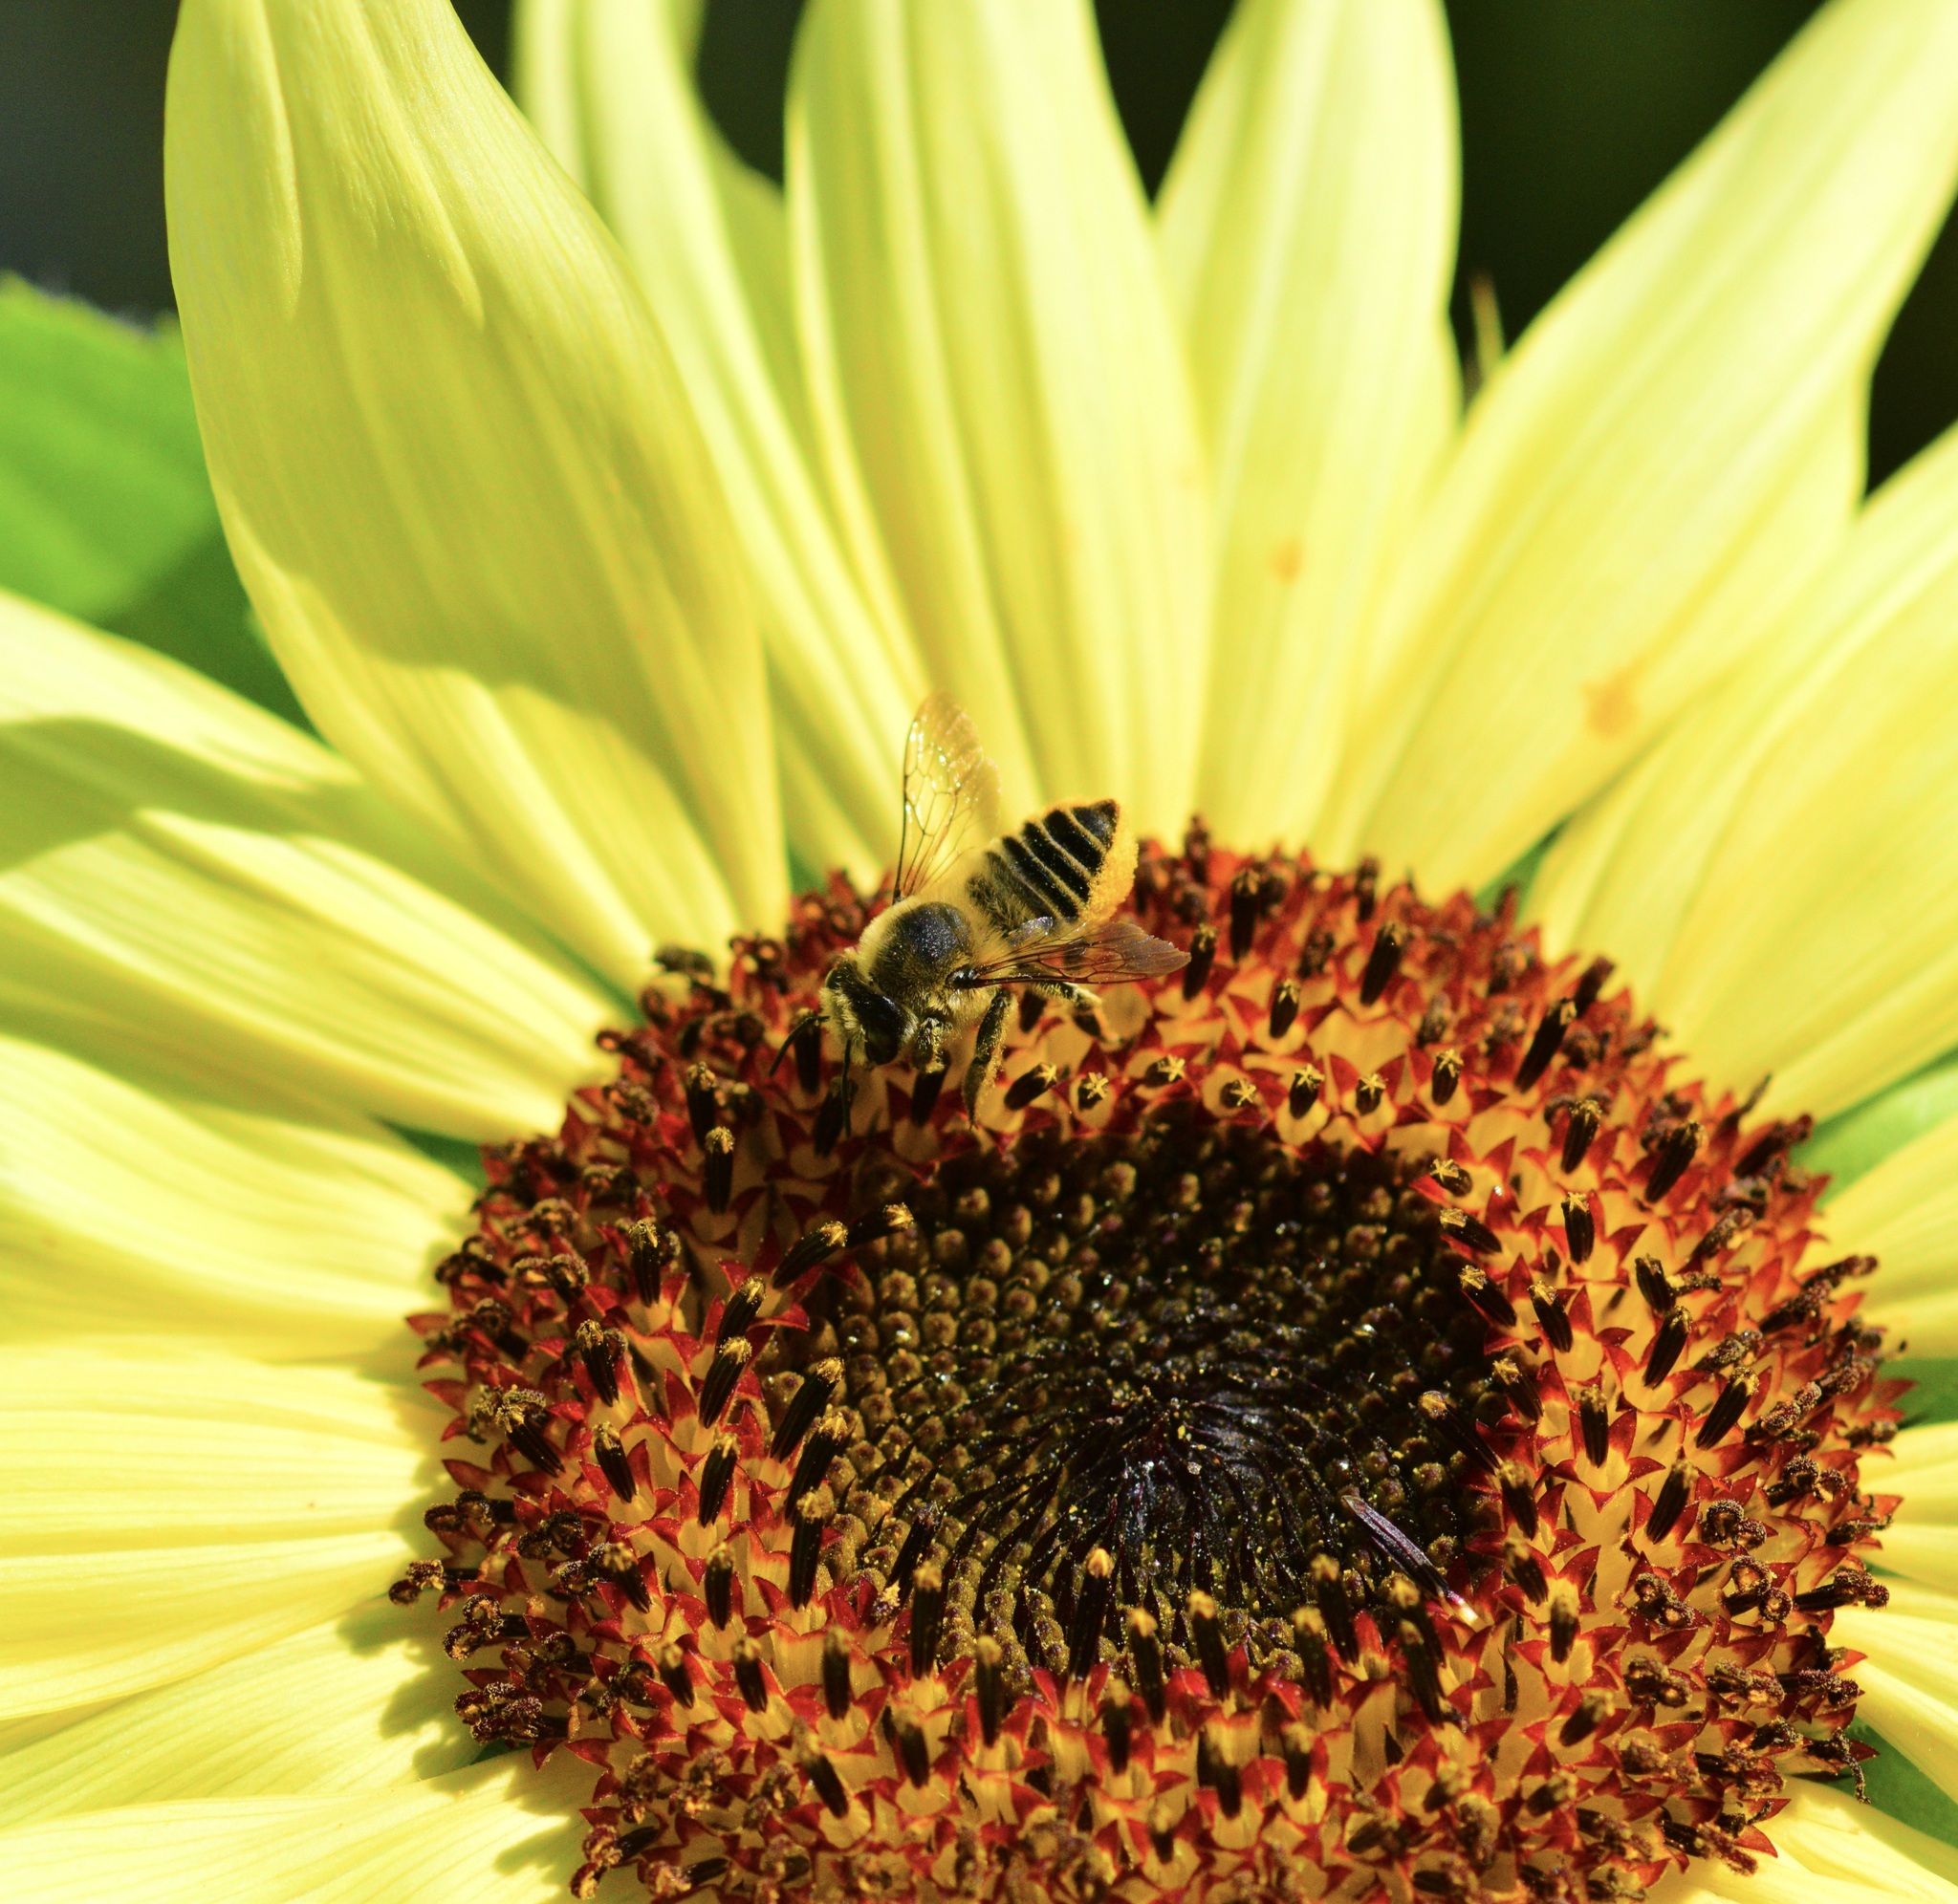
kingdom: Animalia
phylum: Arthropoda
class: Insecta
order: Hymenoptera
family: Megachilidae
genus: Megachile
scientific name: Megachile latimanus
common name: Leafcutting bee
